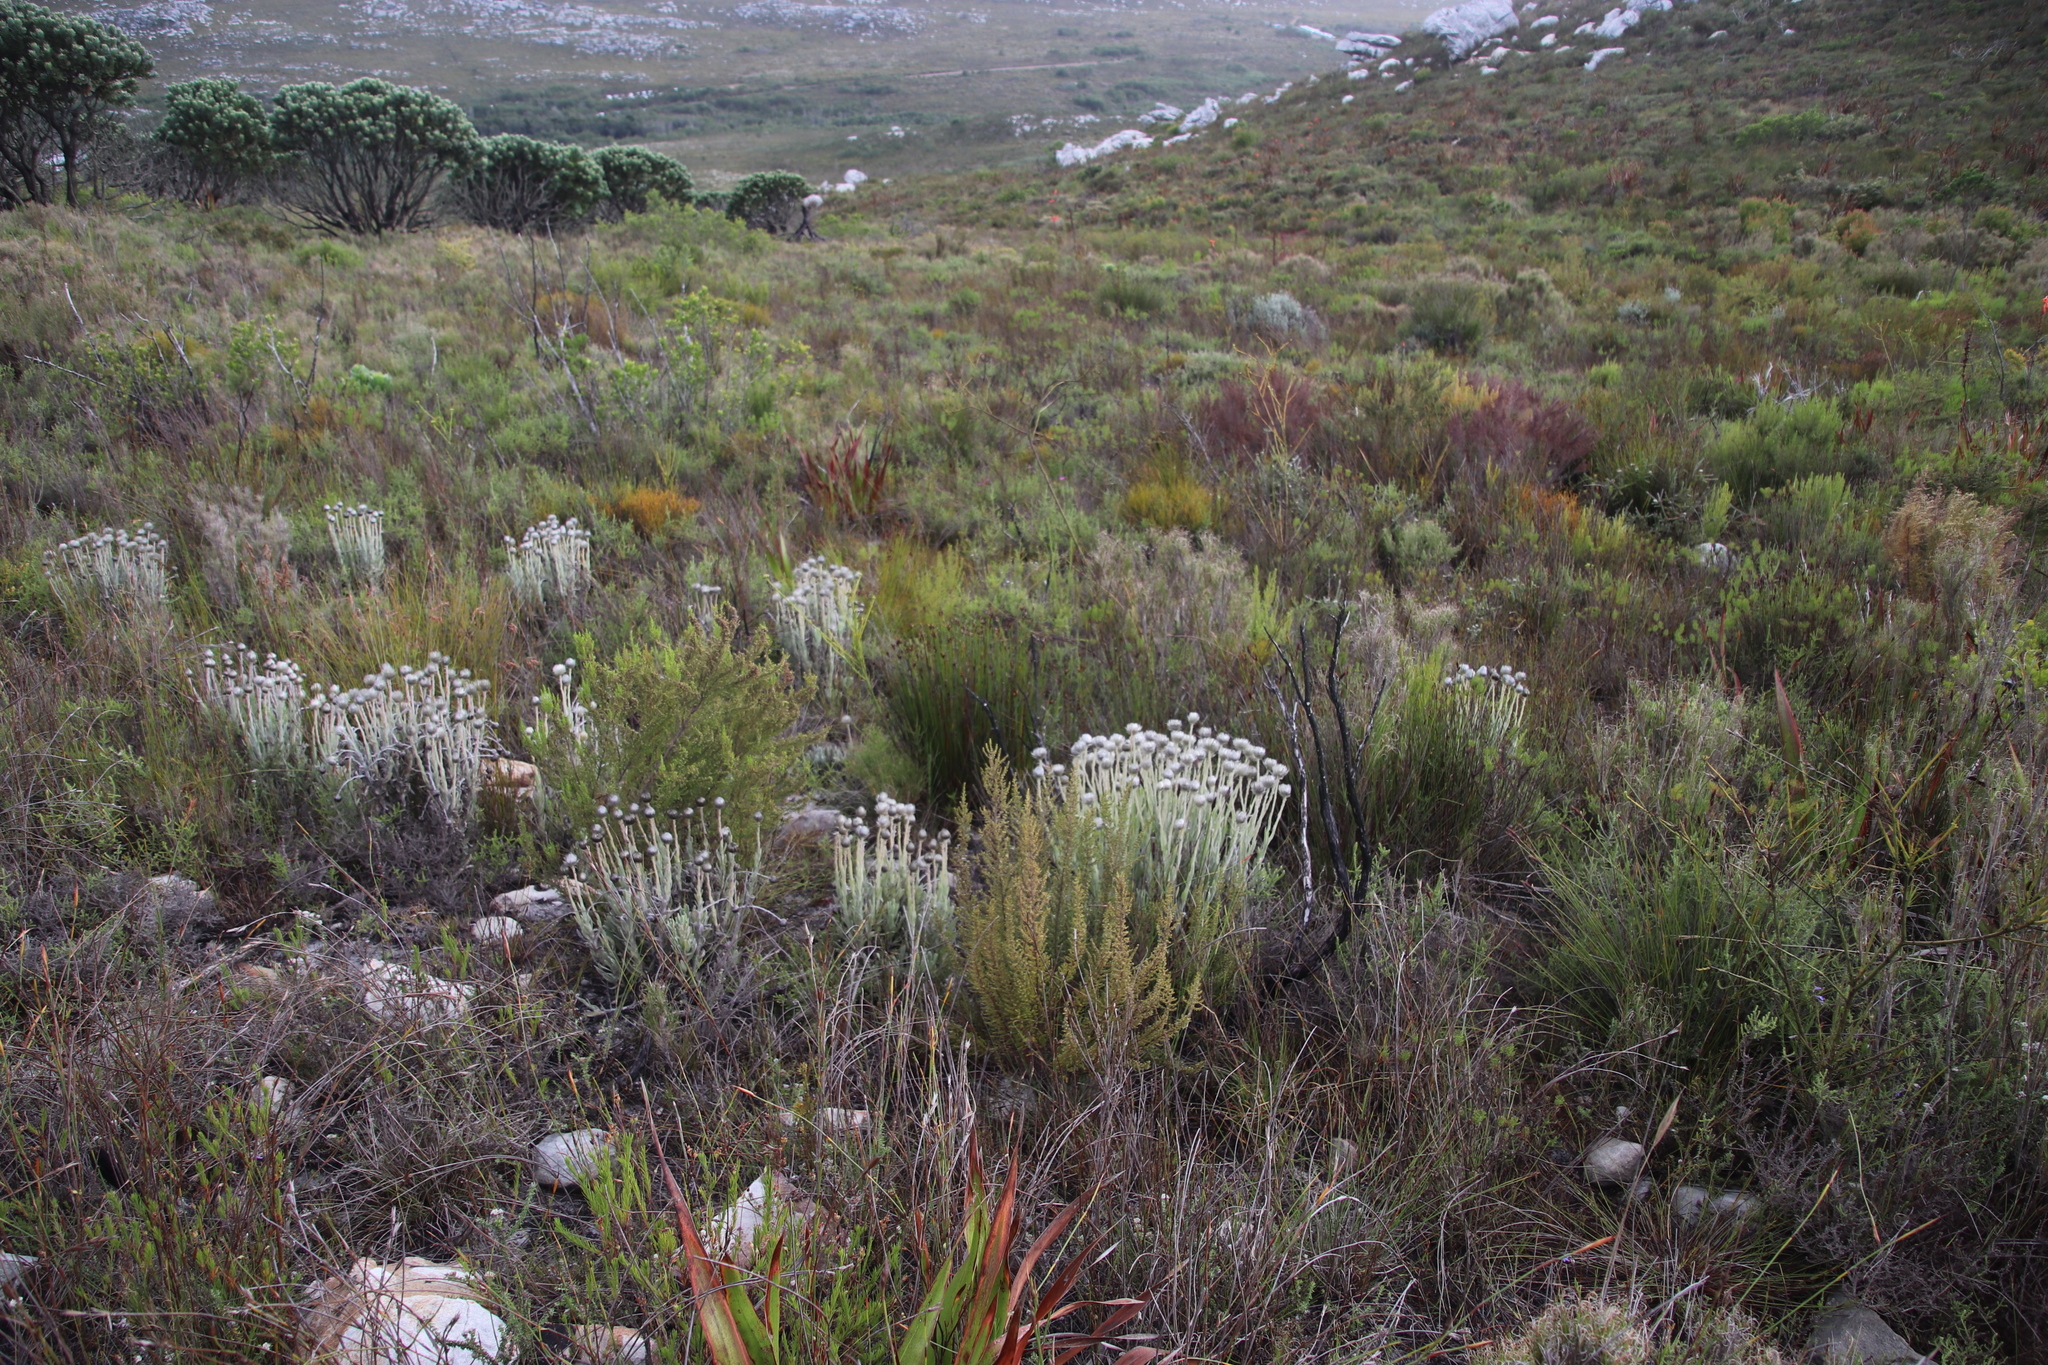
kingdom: Plantae
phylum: Tracheophyta
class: Magnoliopsida
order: Asterales
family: Asteraceae
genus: Syncarpha
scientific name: Syncarpha vestita
